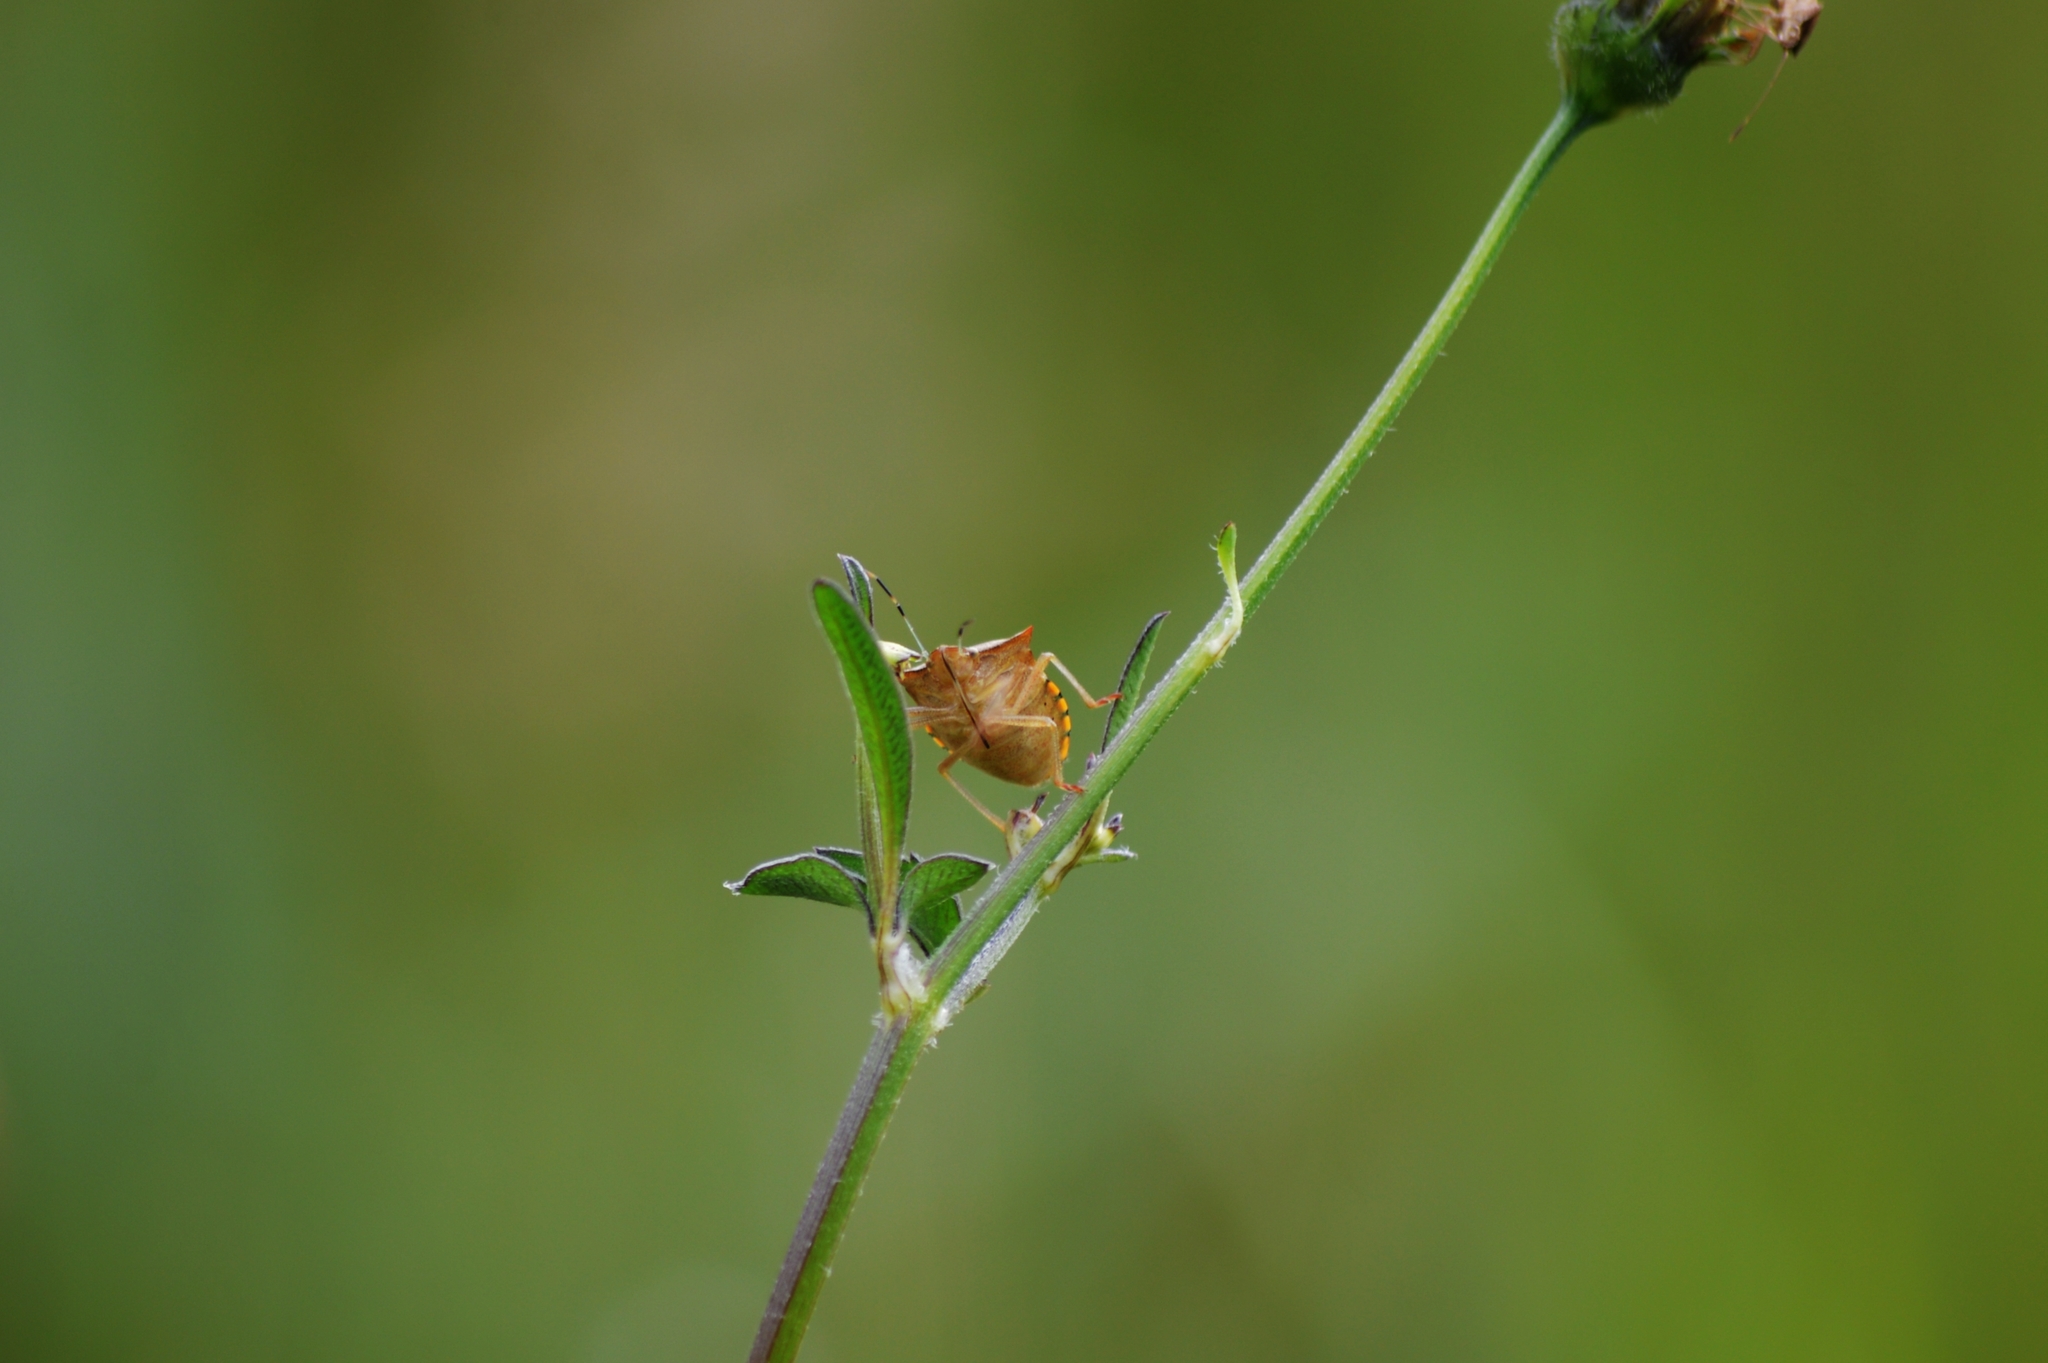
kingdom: Animalia
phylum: Arthropoda
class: Insecta
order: Hemiptera
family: Pentatomidae
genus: Thyanta
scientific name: Thyanta perditor
